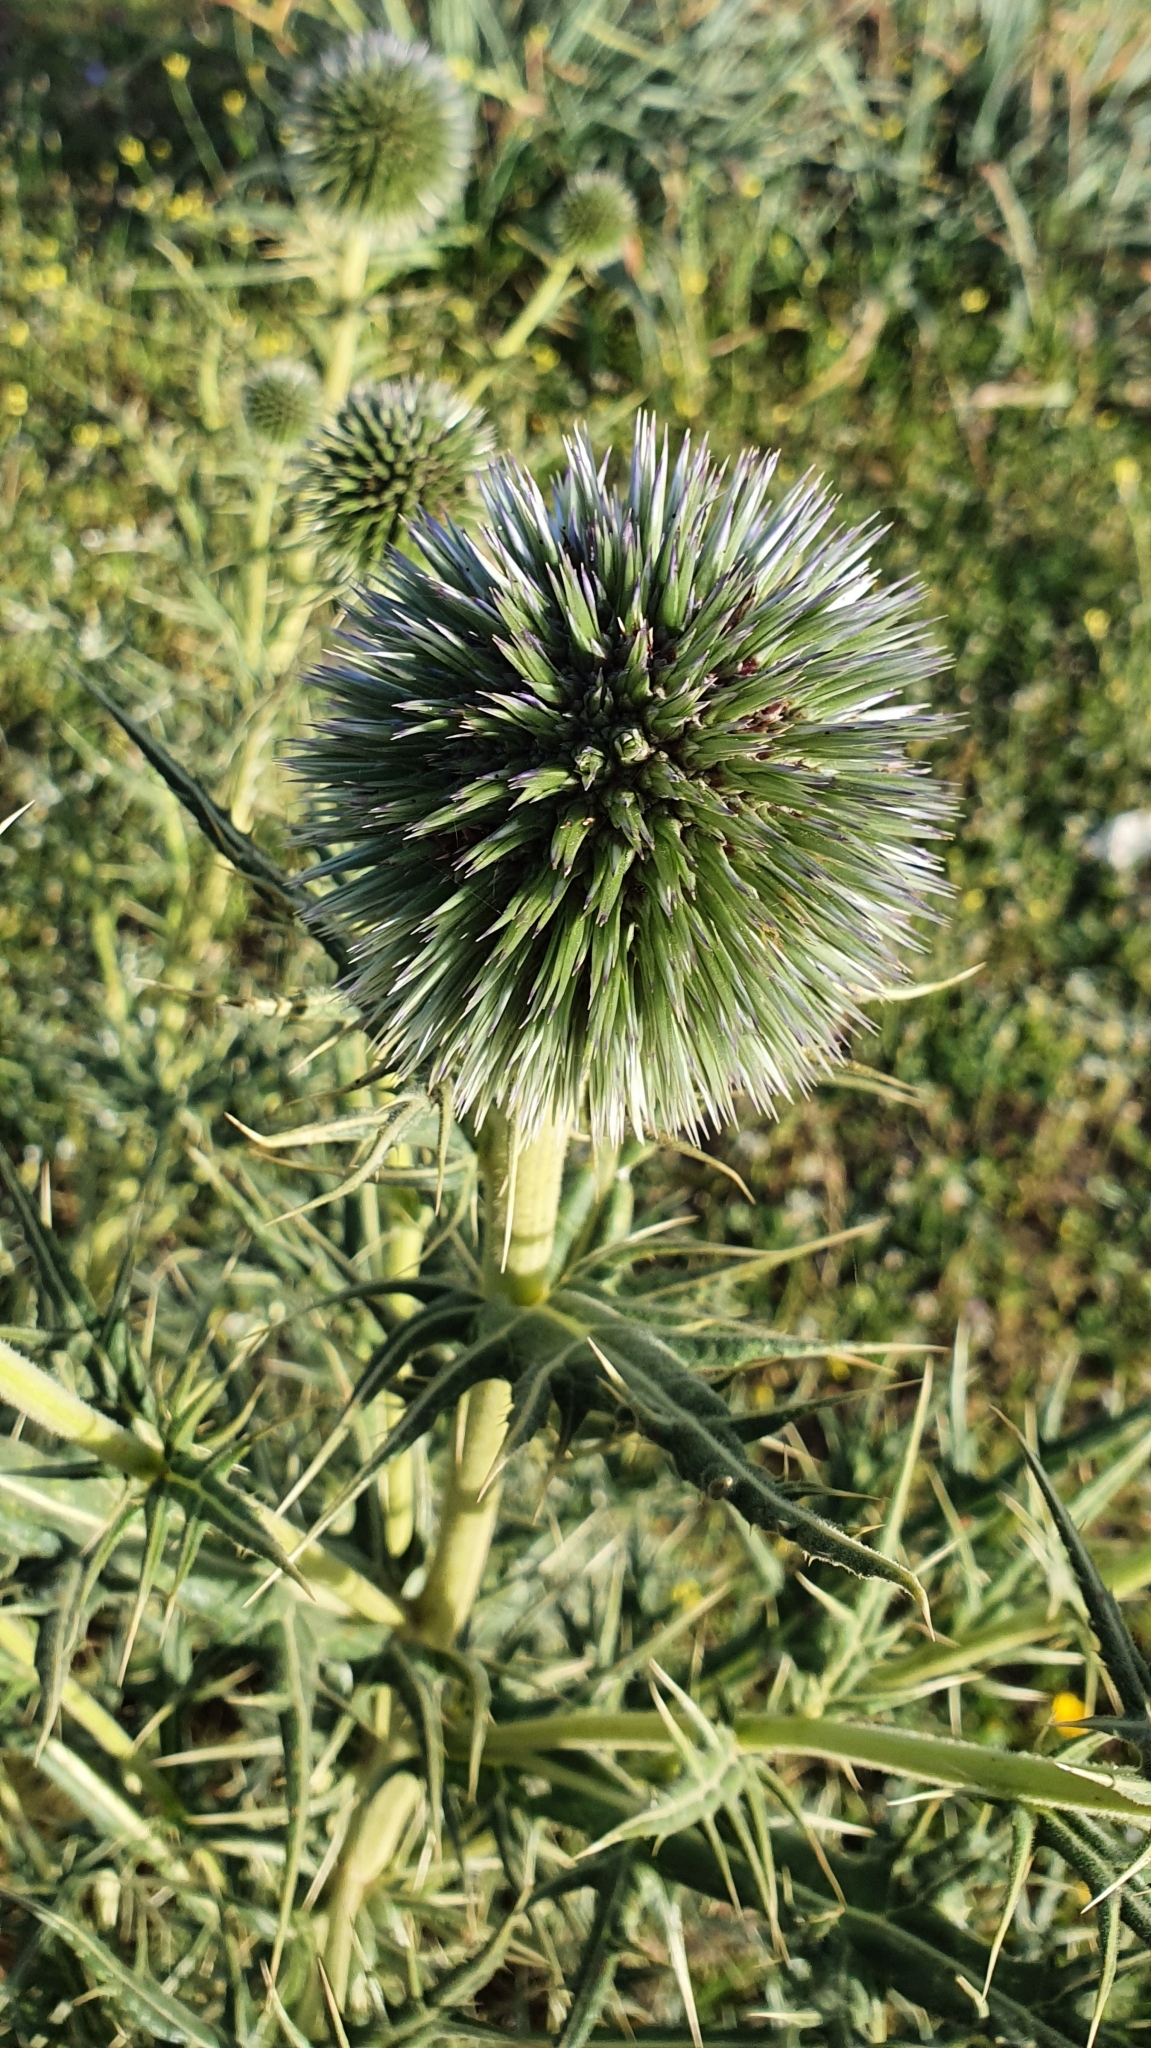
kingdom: Plantae
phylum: Tracheophyta
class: Magnoliopsida
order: Asterales
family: Asteraceae
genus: Echinops
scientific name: Echinops bovei
